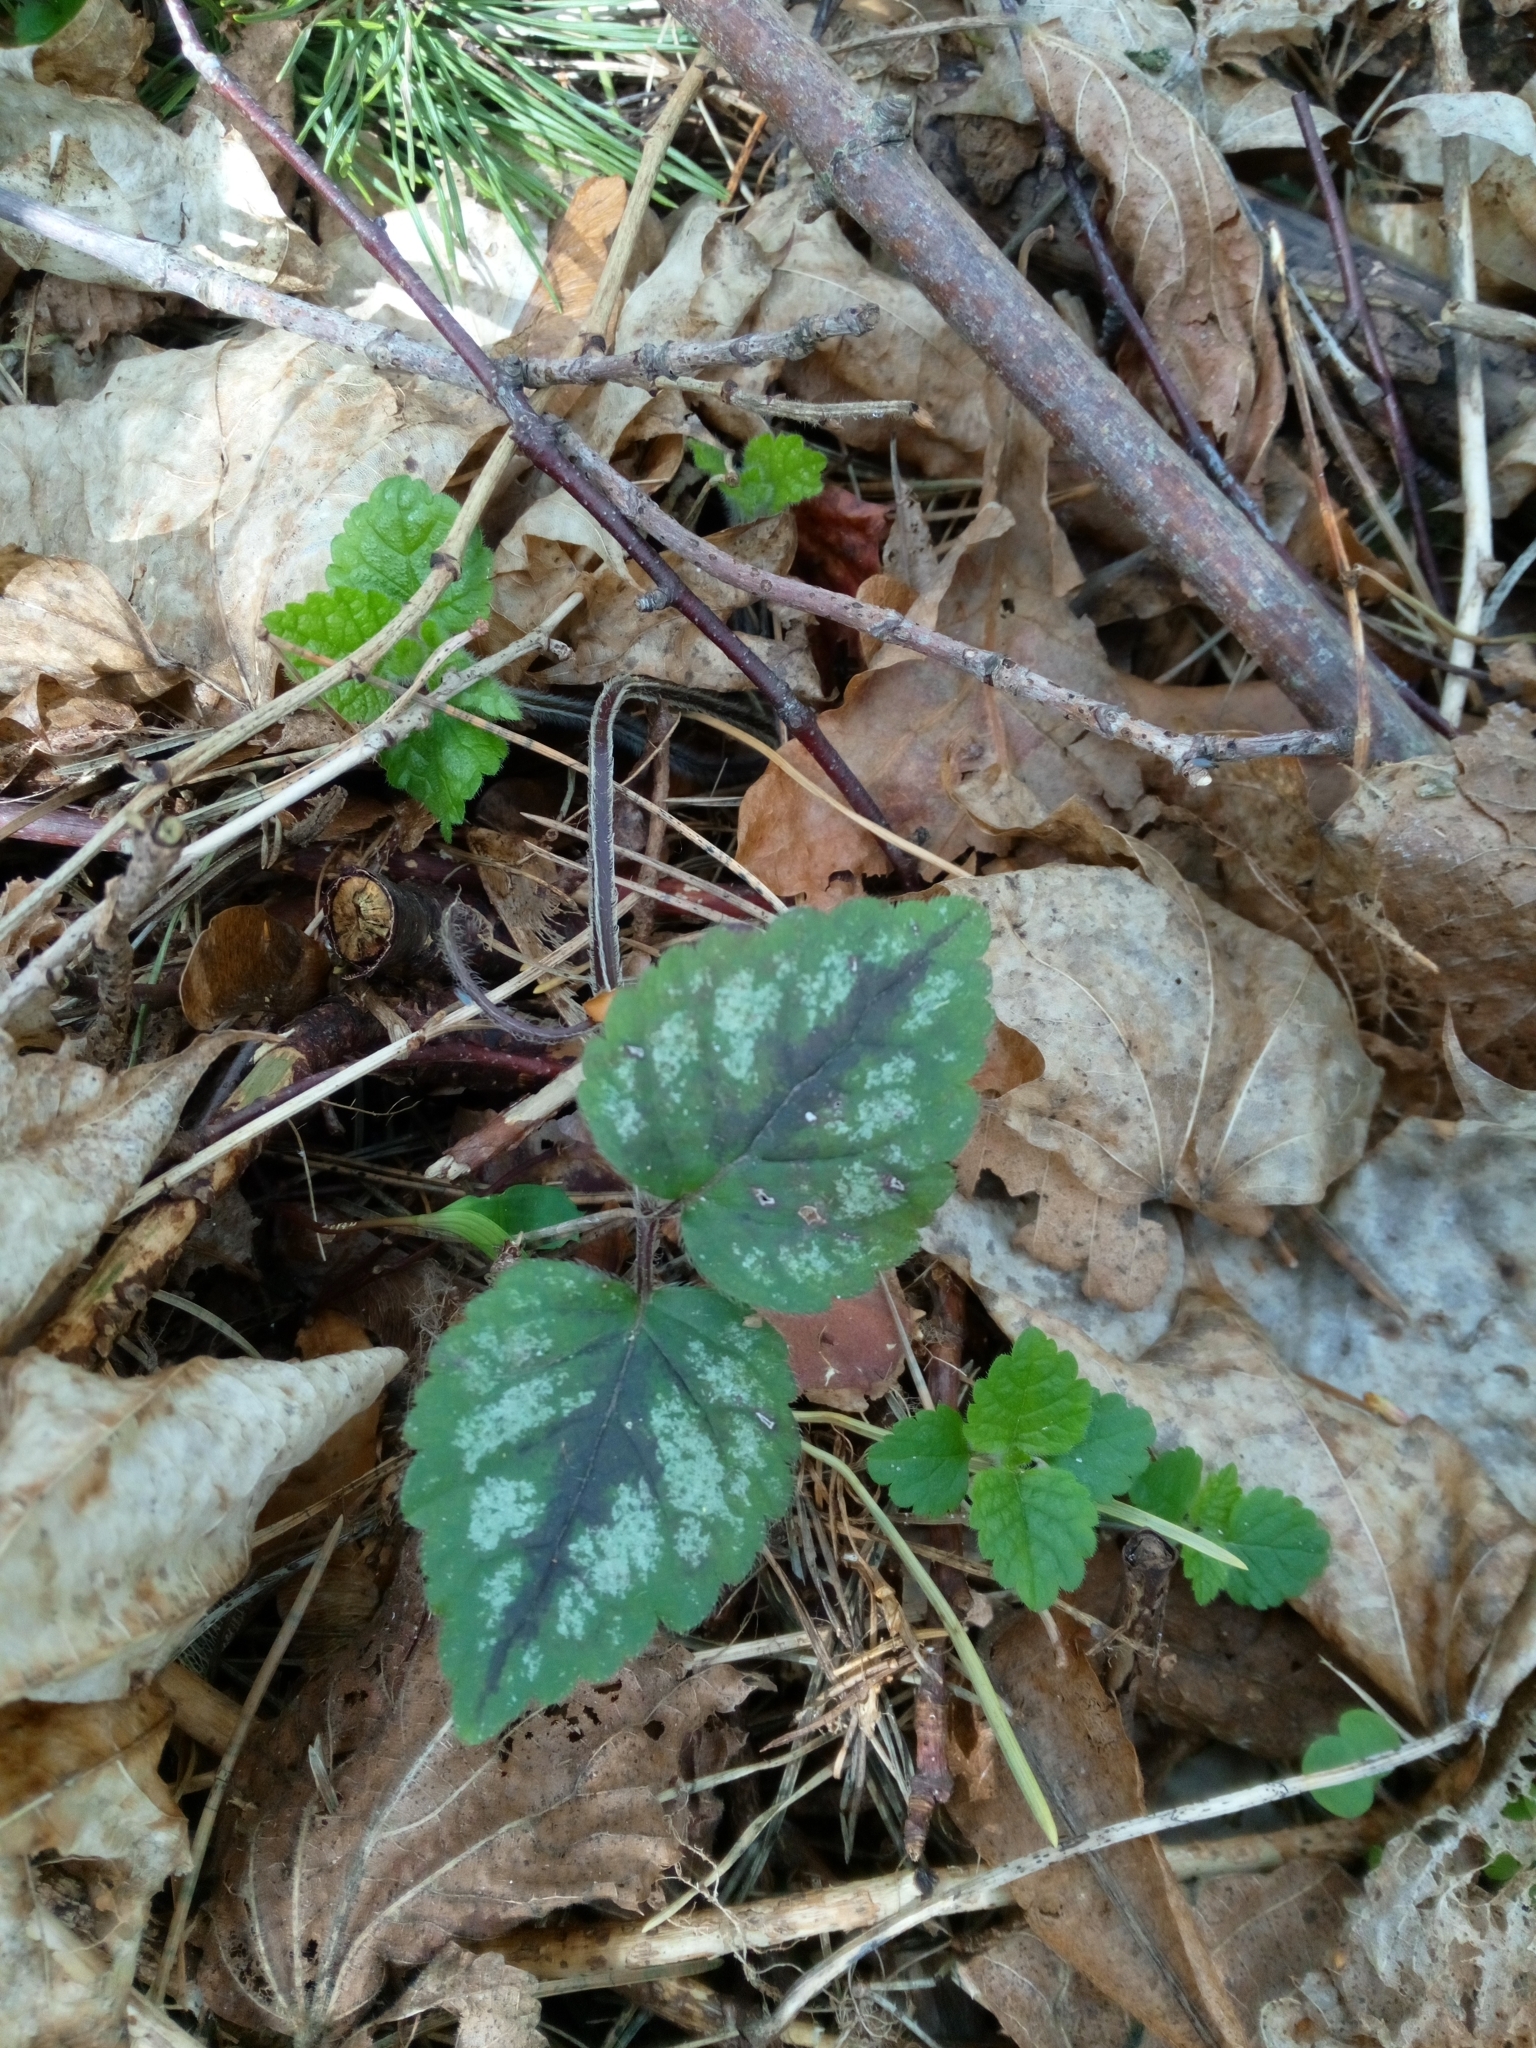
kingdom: Plantae
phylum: Tracheophyta
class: Magnoliopsida
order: Lamiales
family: Lamiaceae
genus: Lamium
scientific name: Lamium galeobdolon
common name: Yellow archangel
